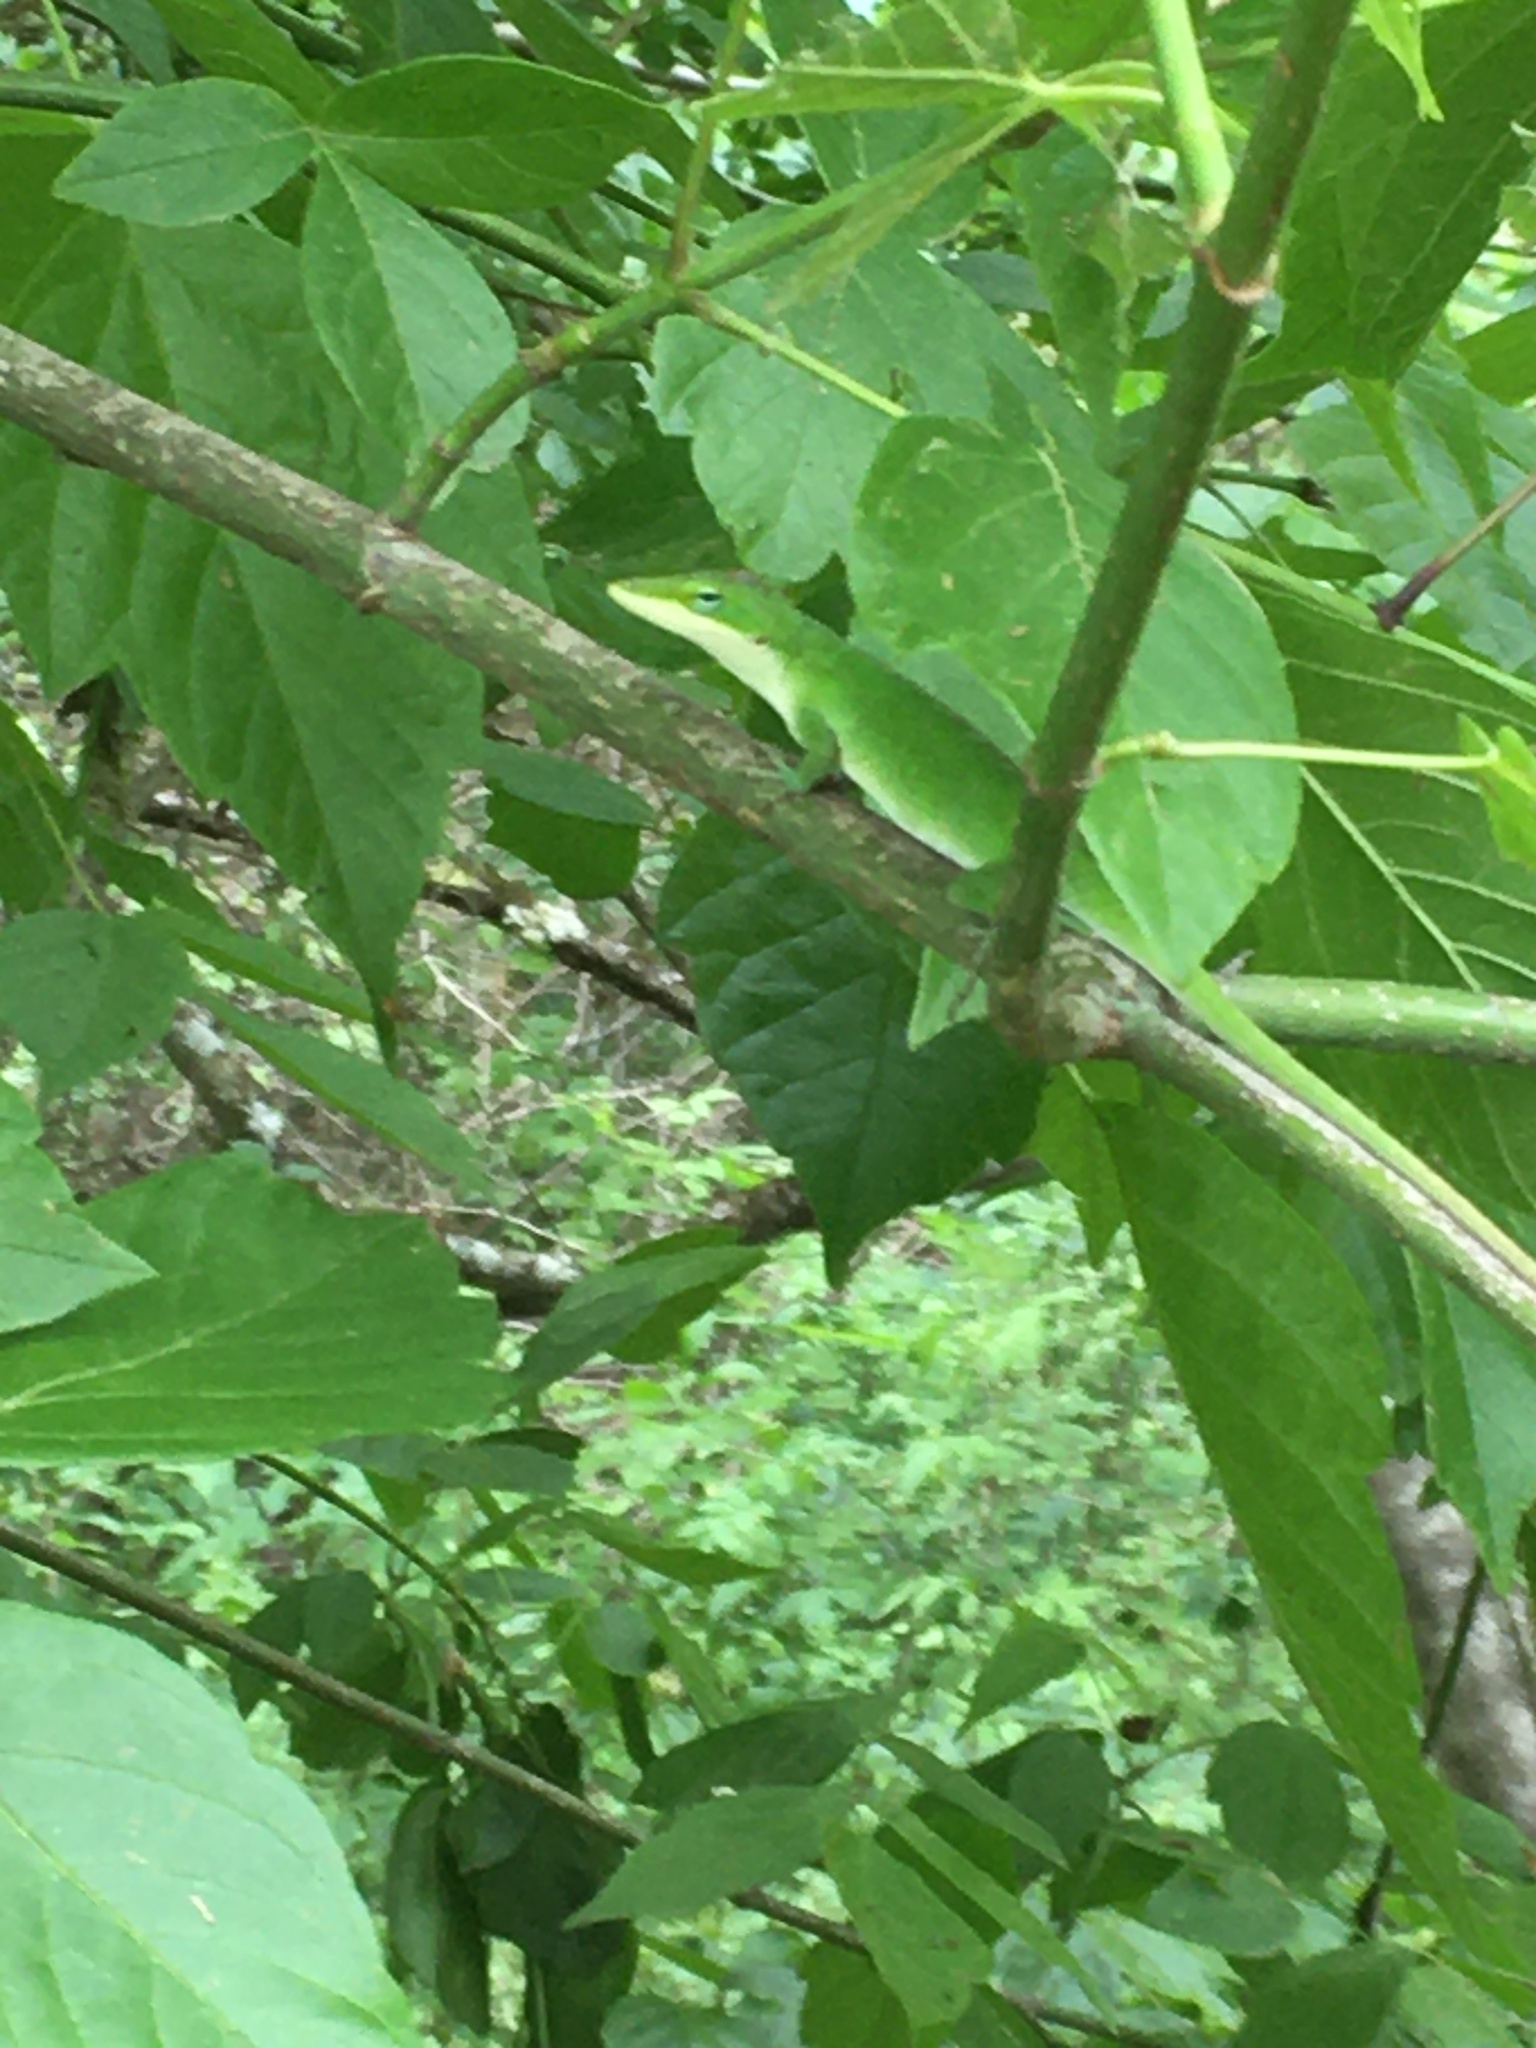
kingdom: Animalia
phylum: Chordata
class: Squamata
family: Dactyloidae
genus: Anolis
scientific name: Anolis carolinensis
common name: Green anole
